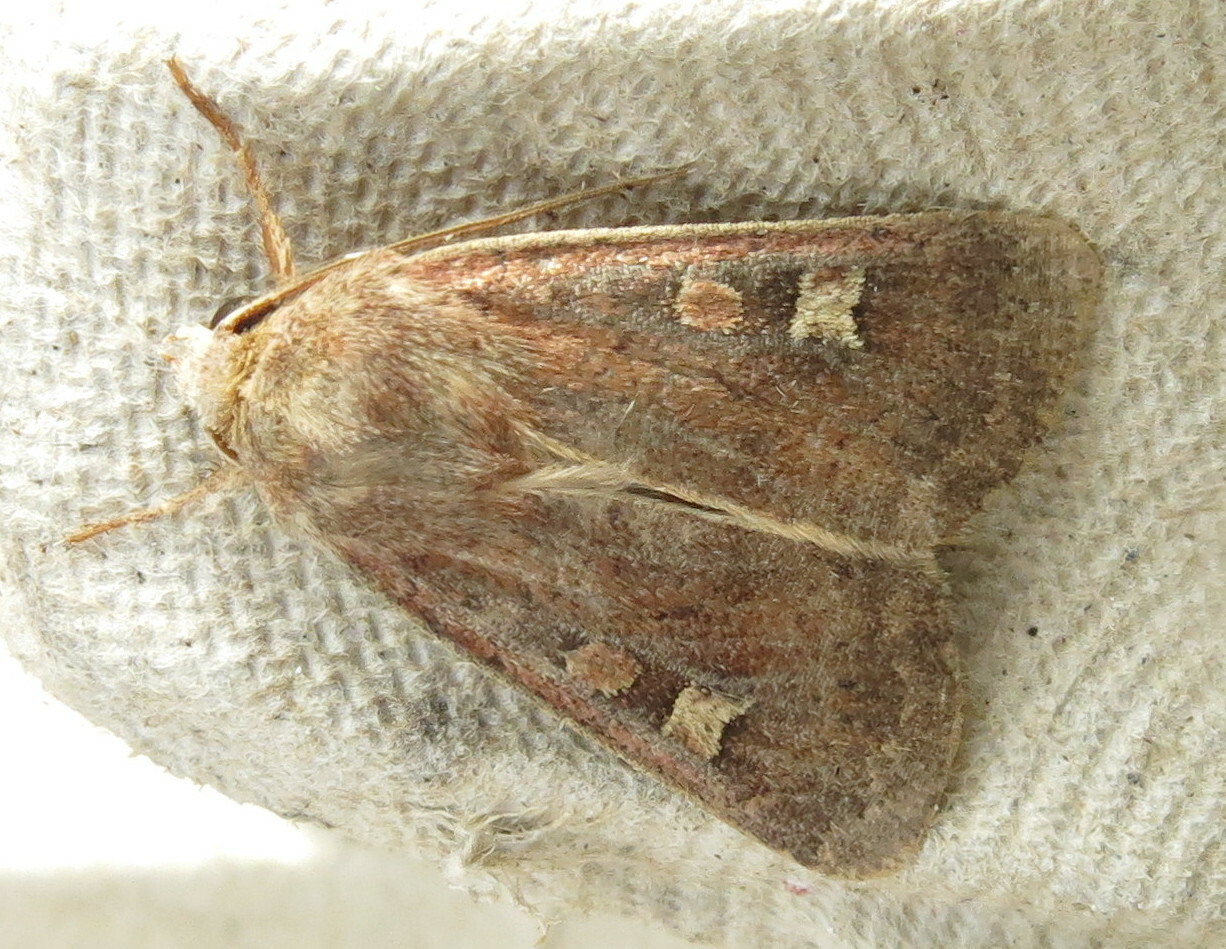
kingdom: Animalia
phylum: Arthropoda
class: Insecta
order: Lepidoptera
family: Noctuidae
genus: Xestia
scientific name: Xestia xanthographa
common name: Square-spot rustic
